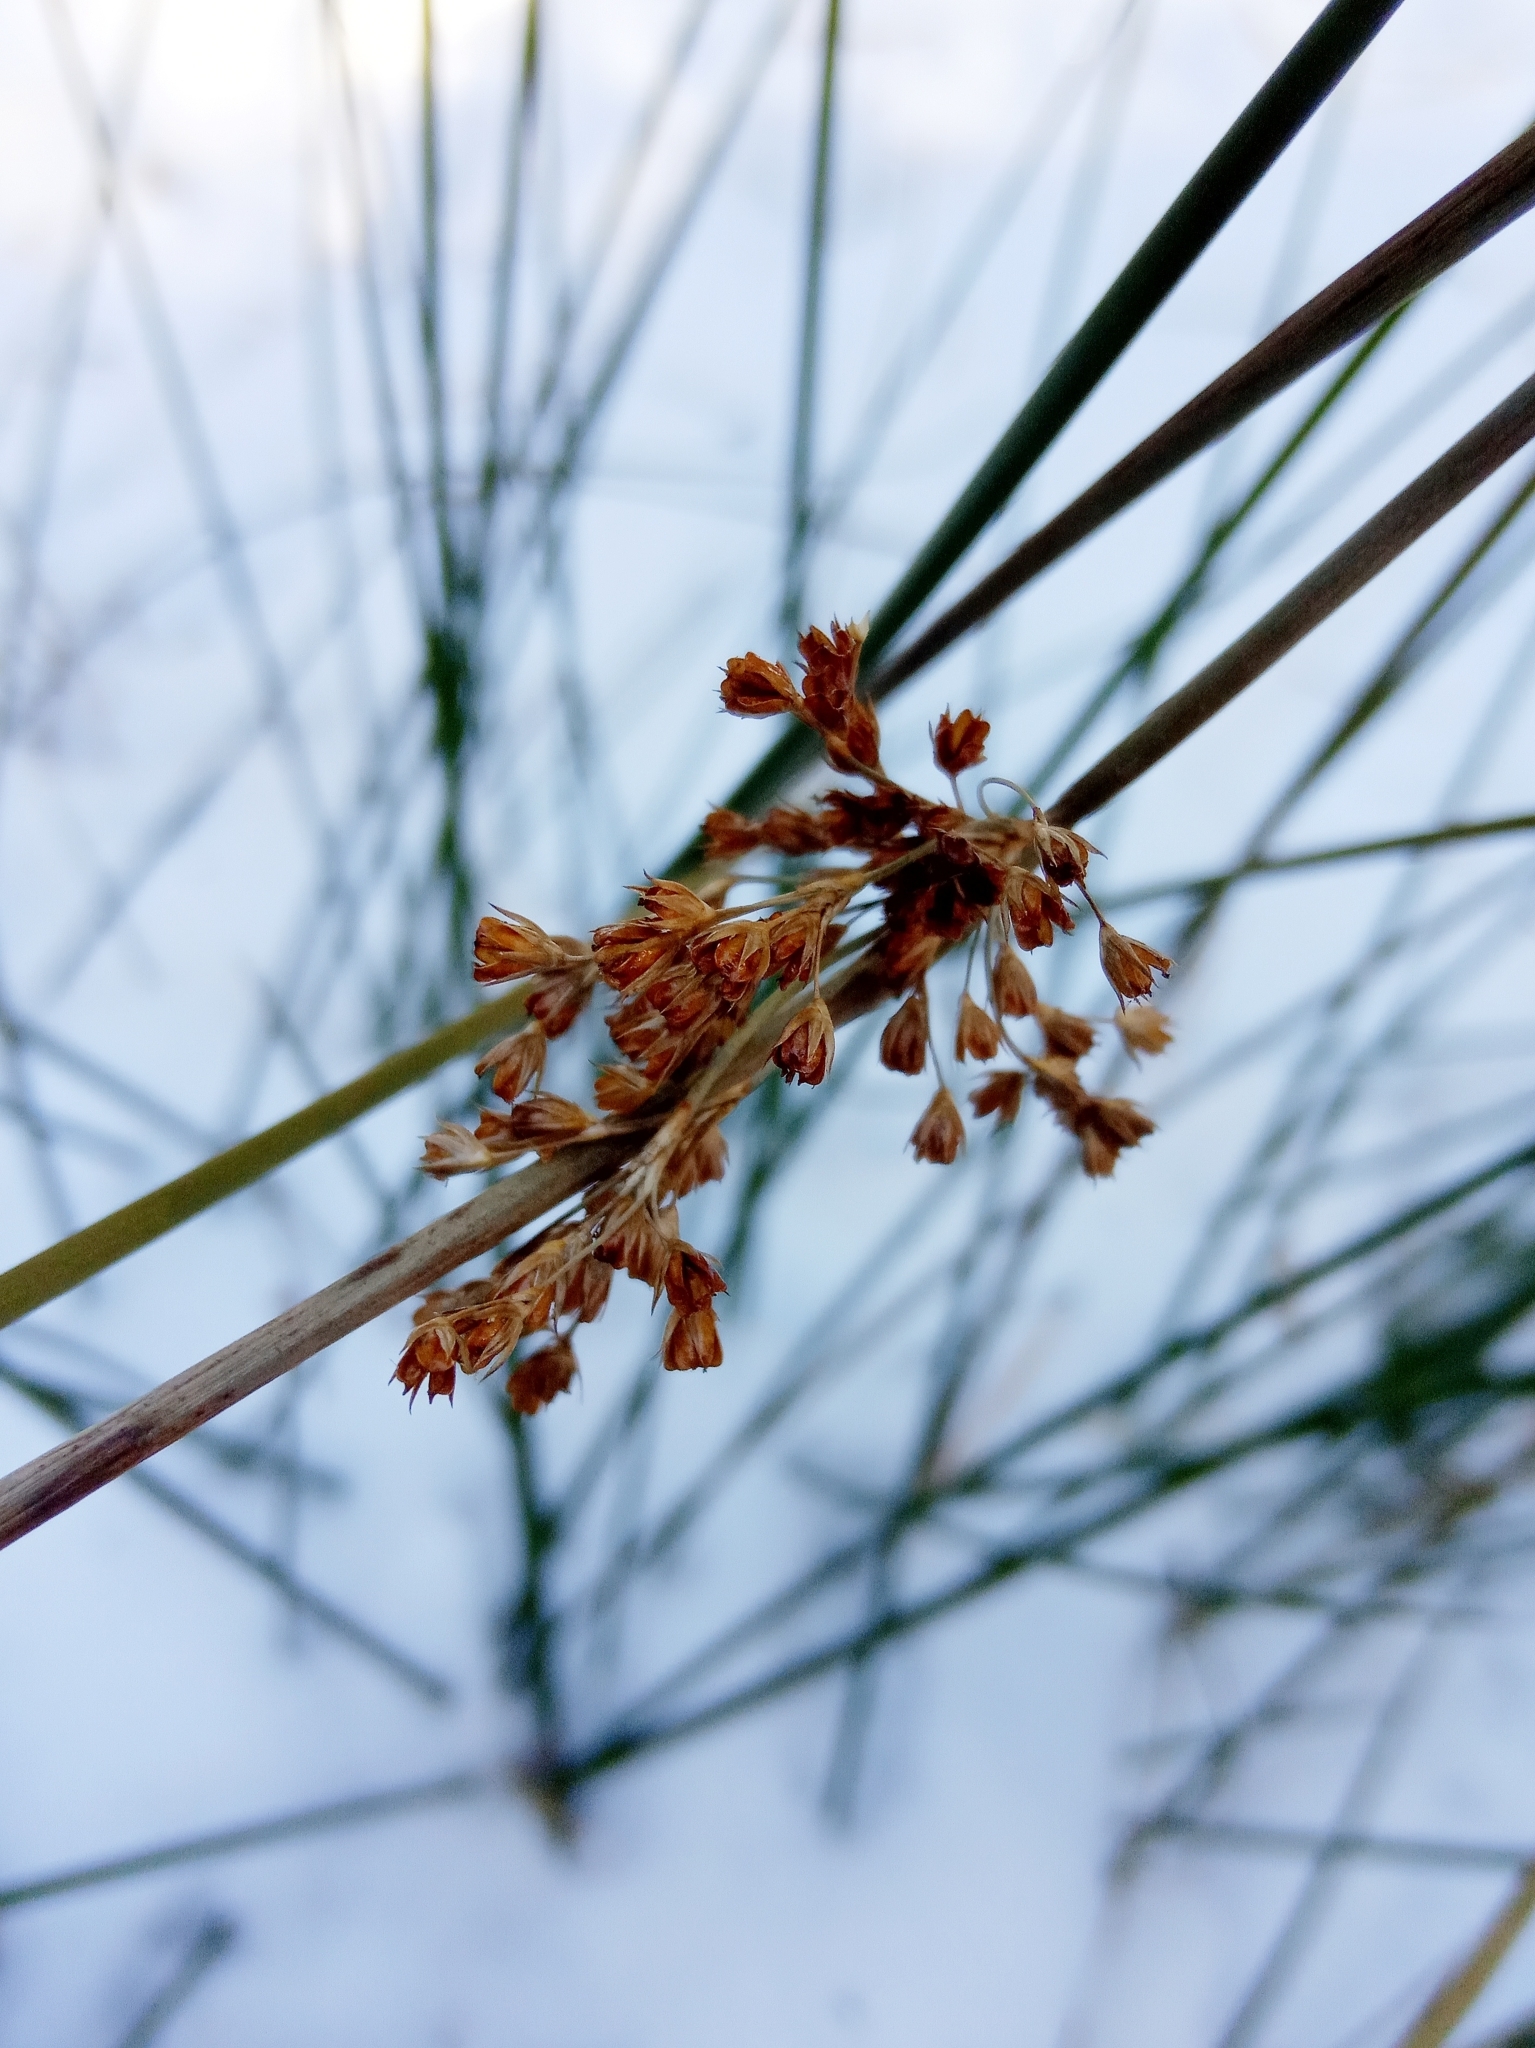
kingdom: Plantae
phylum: Tracheophyta
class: Liliopsida
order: Poales
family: Juncaceae
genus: Juncus
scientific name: Juncus effusus
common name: Soft rush
